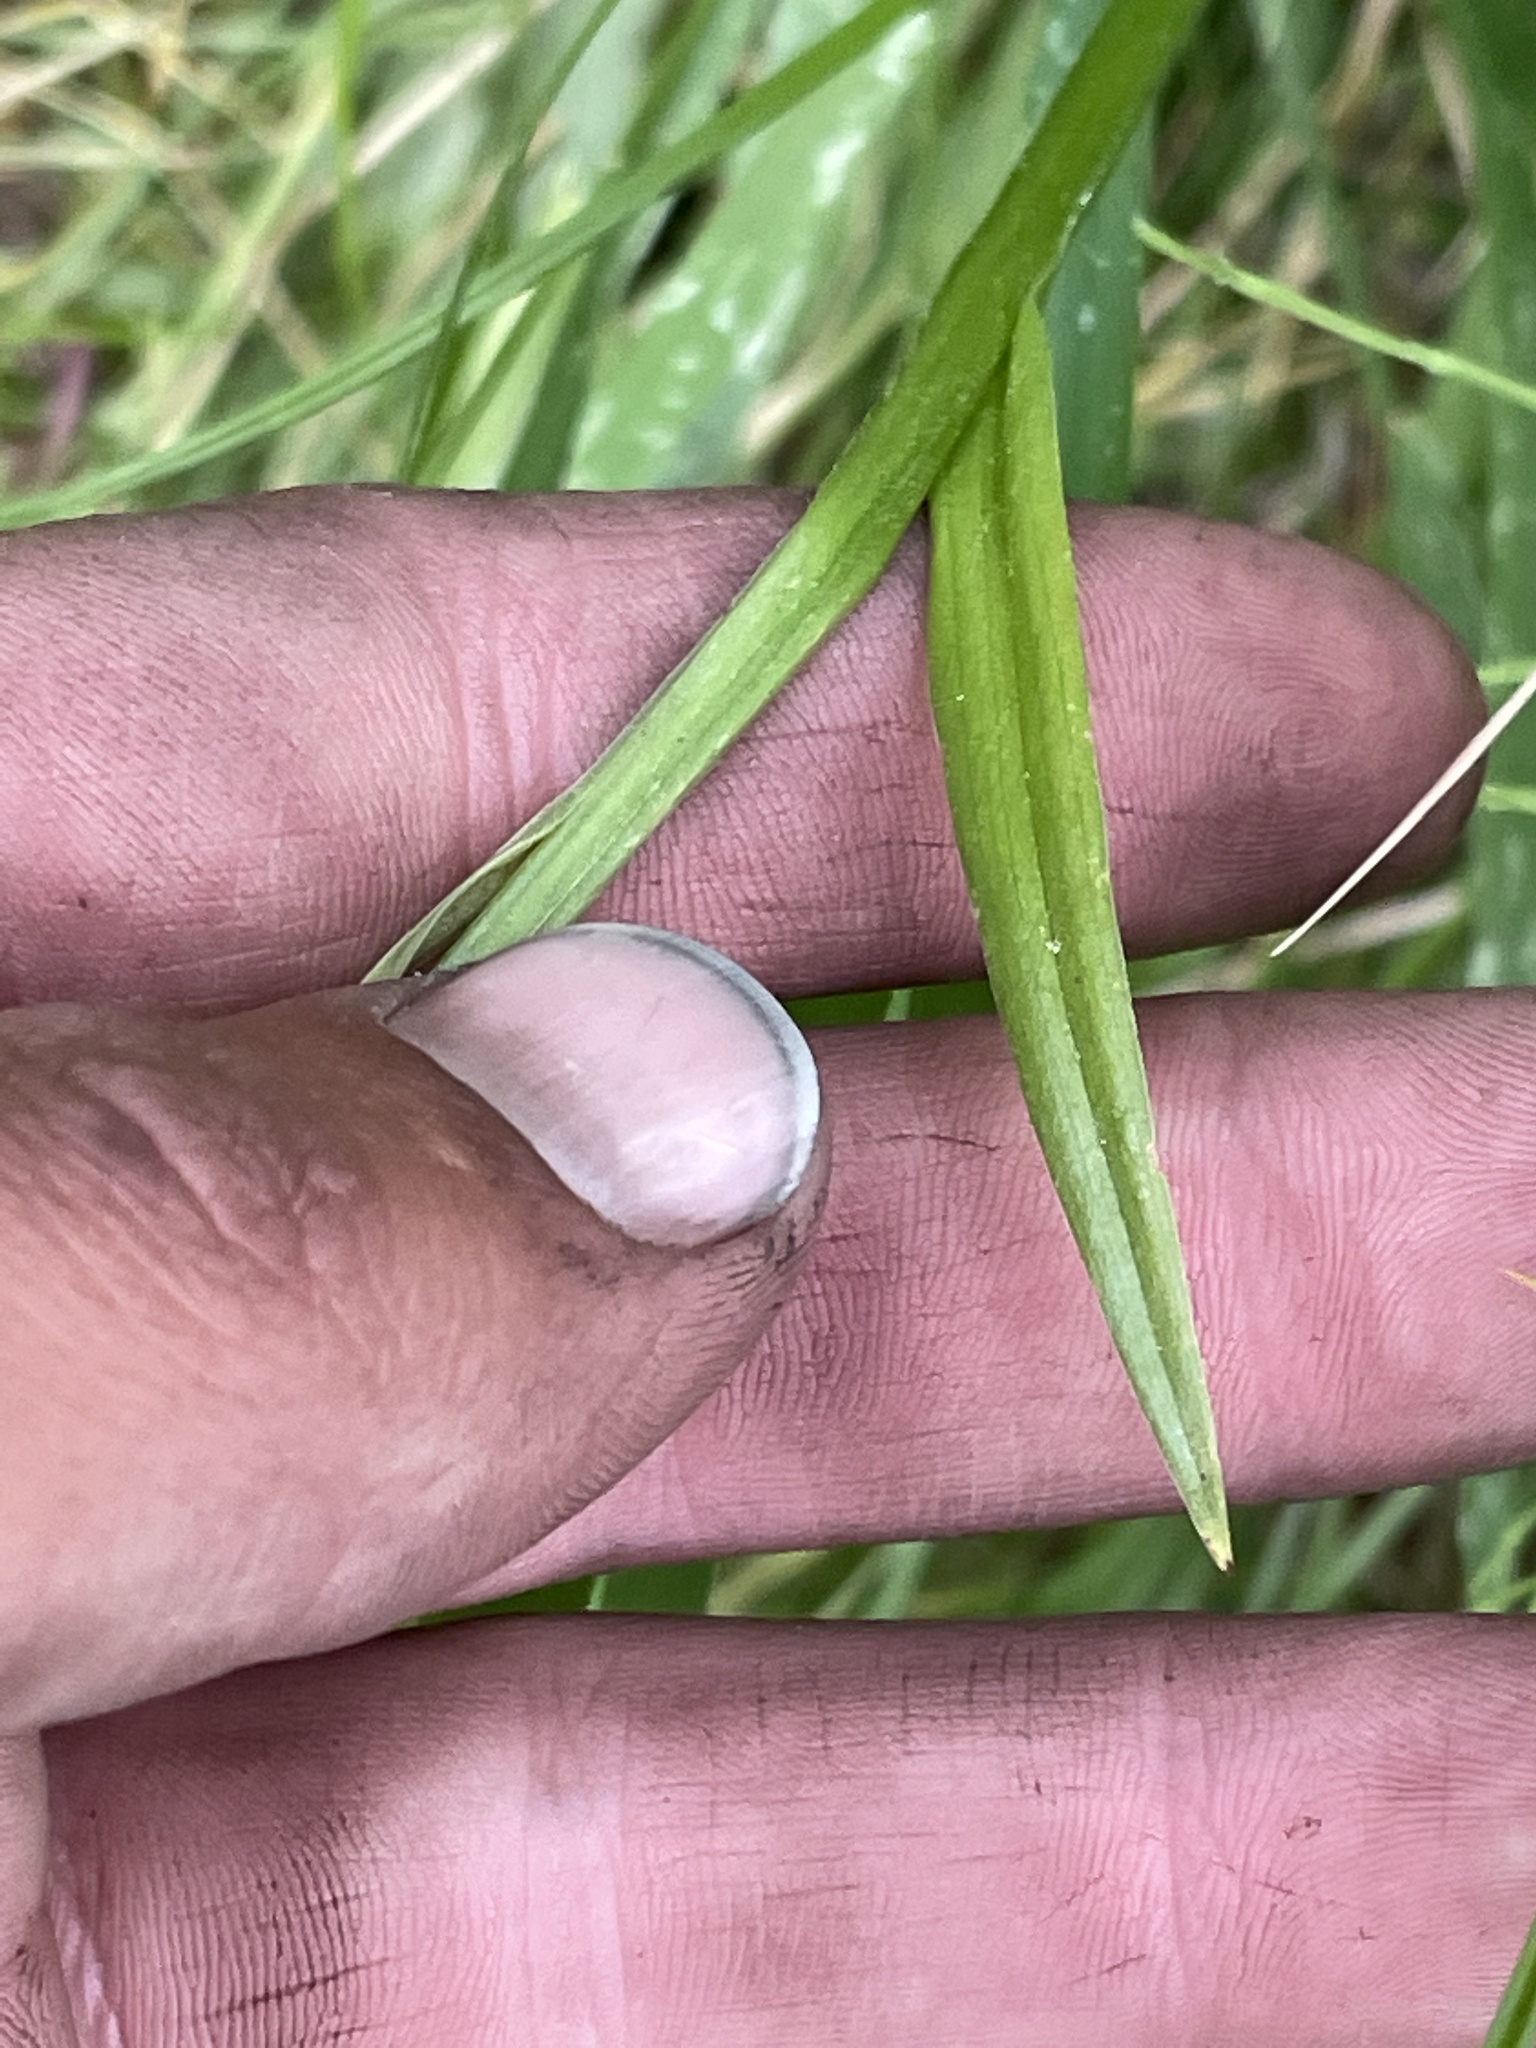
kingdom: Plantae
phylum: Tracheophyta
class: Liliopsida
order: Asparagales
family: Orchidaceae
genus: Platanthera
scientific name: Platanthera dilatata
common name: Bog candles
